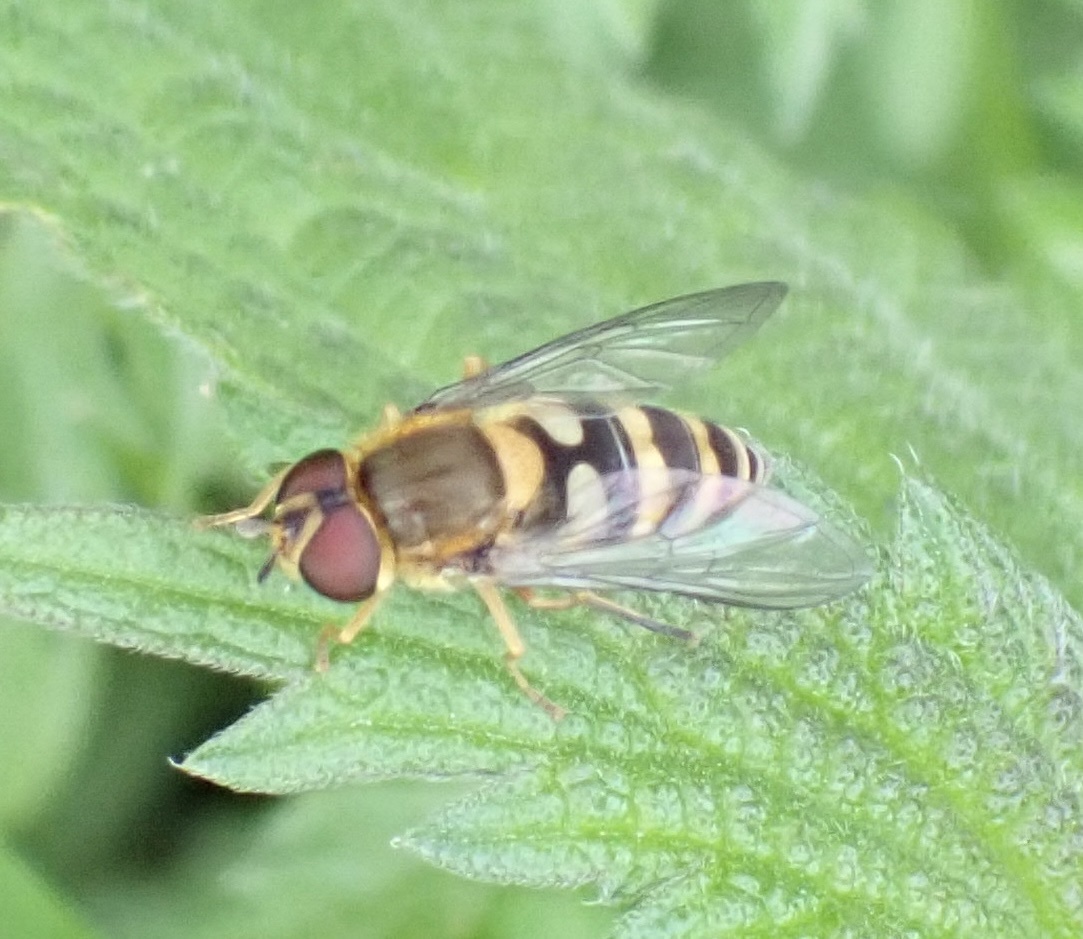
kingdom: Animalia
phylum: Arthropoda
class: Insecta
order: Diptera
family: Syrphidae
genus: Syrphus
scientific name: Syrphus
